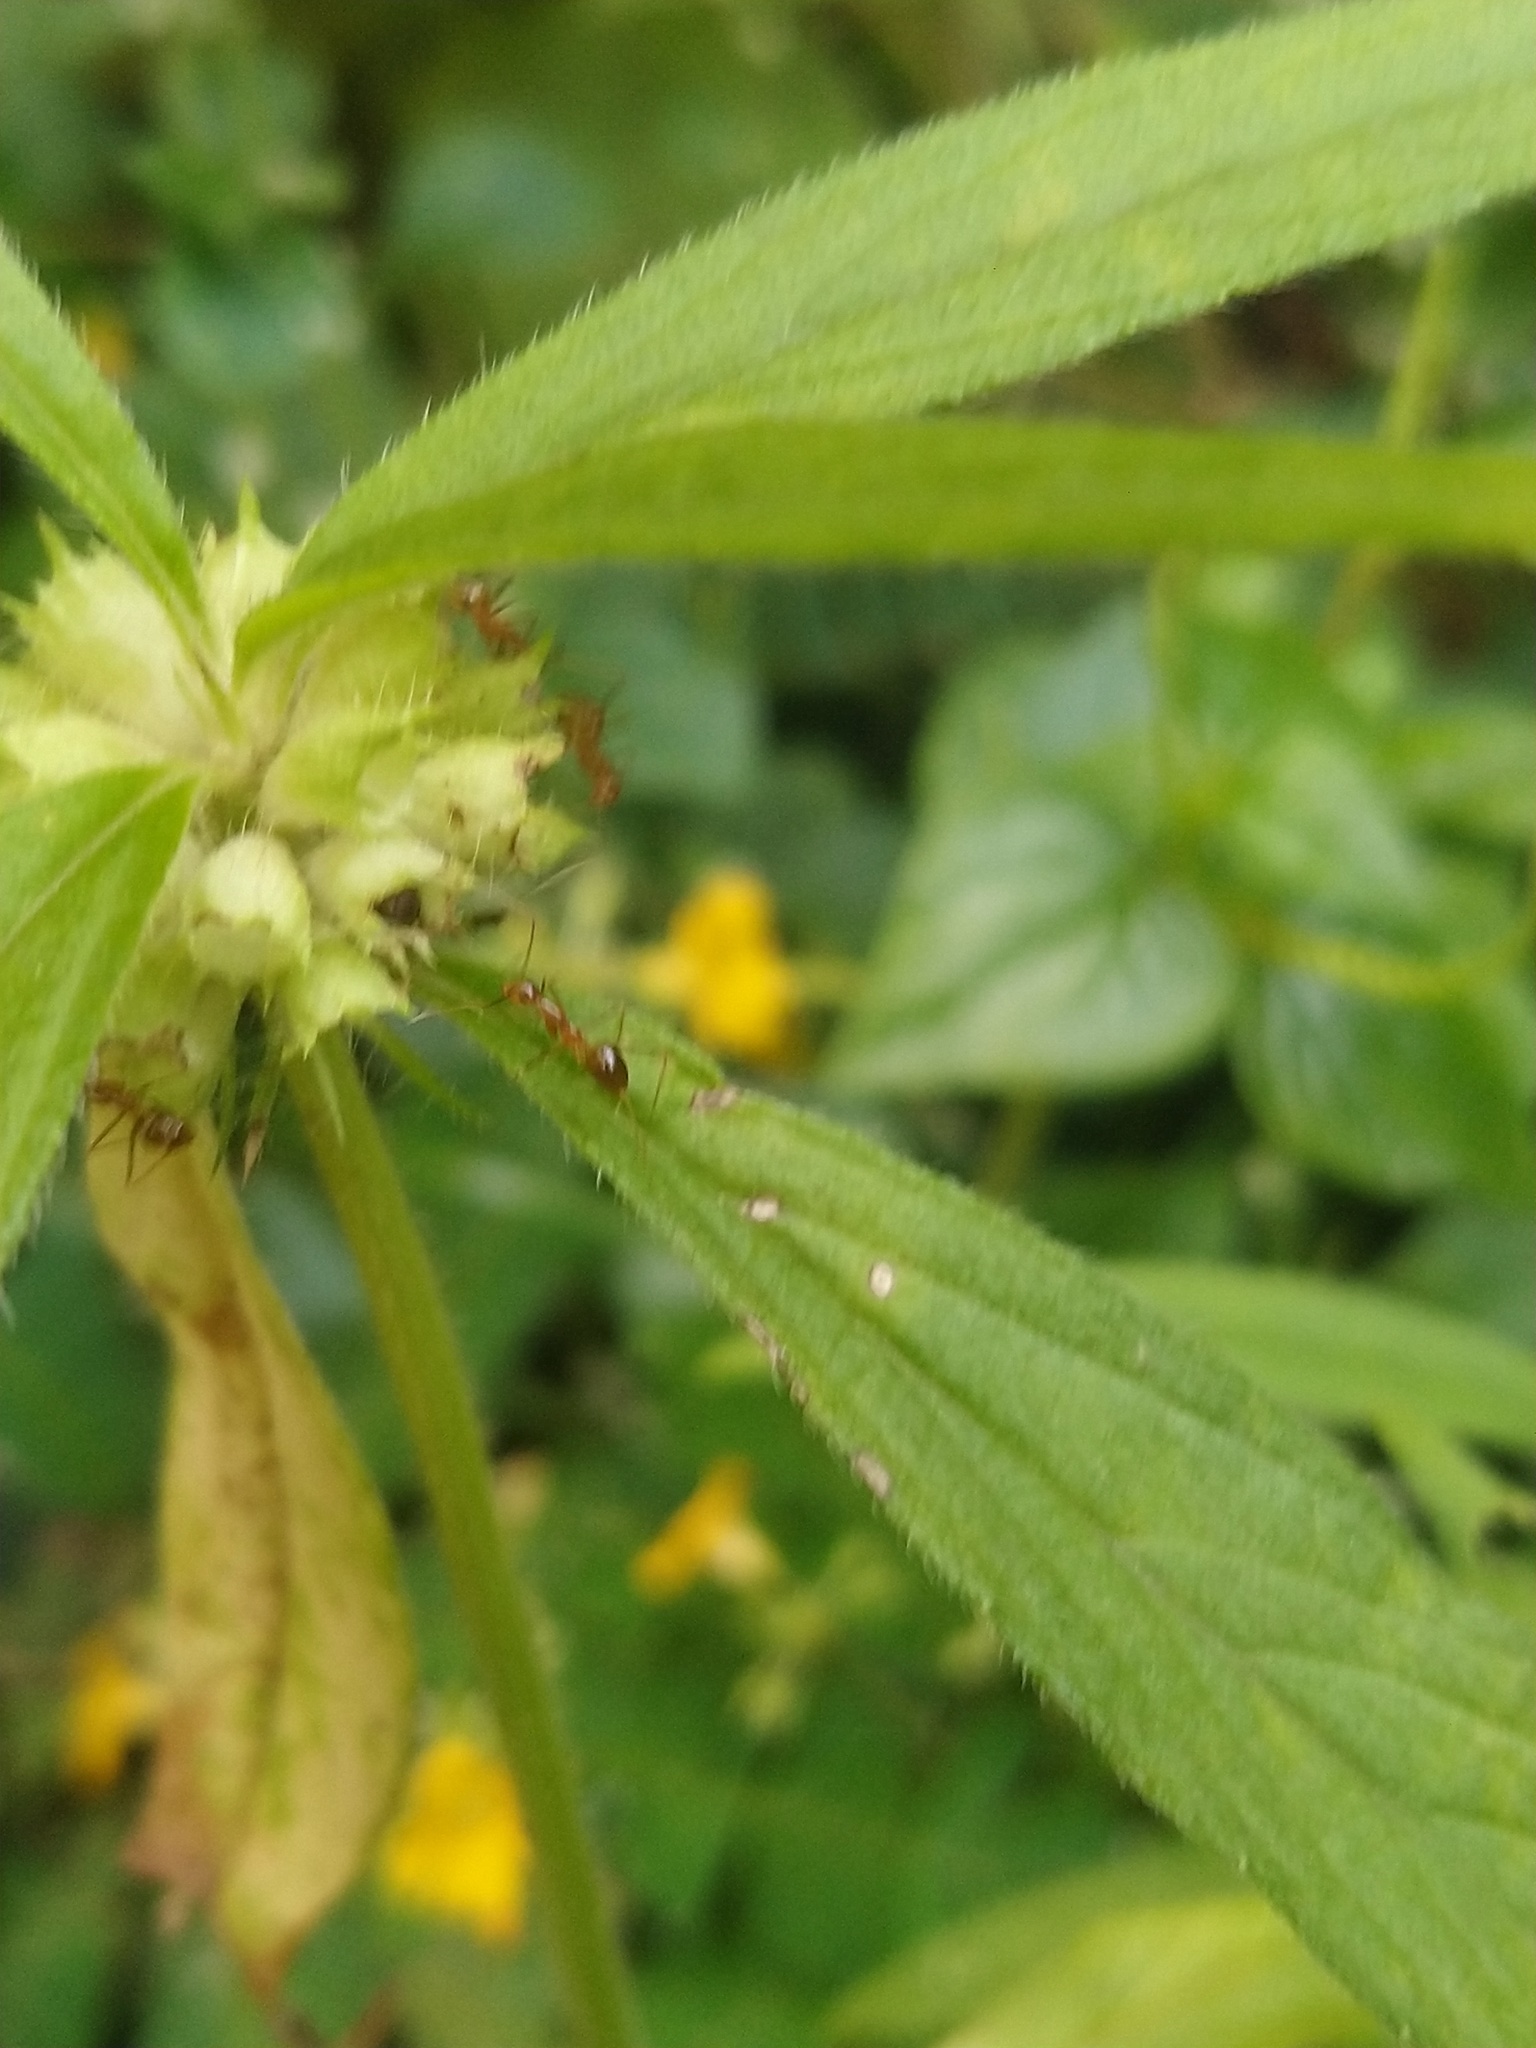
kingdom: Animalia
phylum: Arthropoda
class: Insecta
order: Hymenoptera
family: Formicidae
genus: Anoplolepis
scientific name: Anoplolepis gracilipes
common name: Ant
